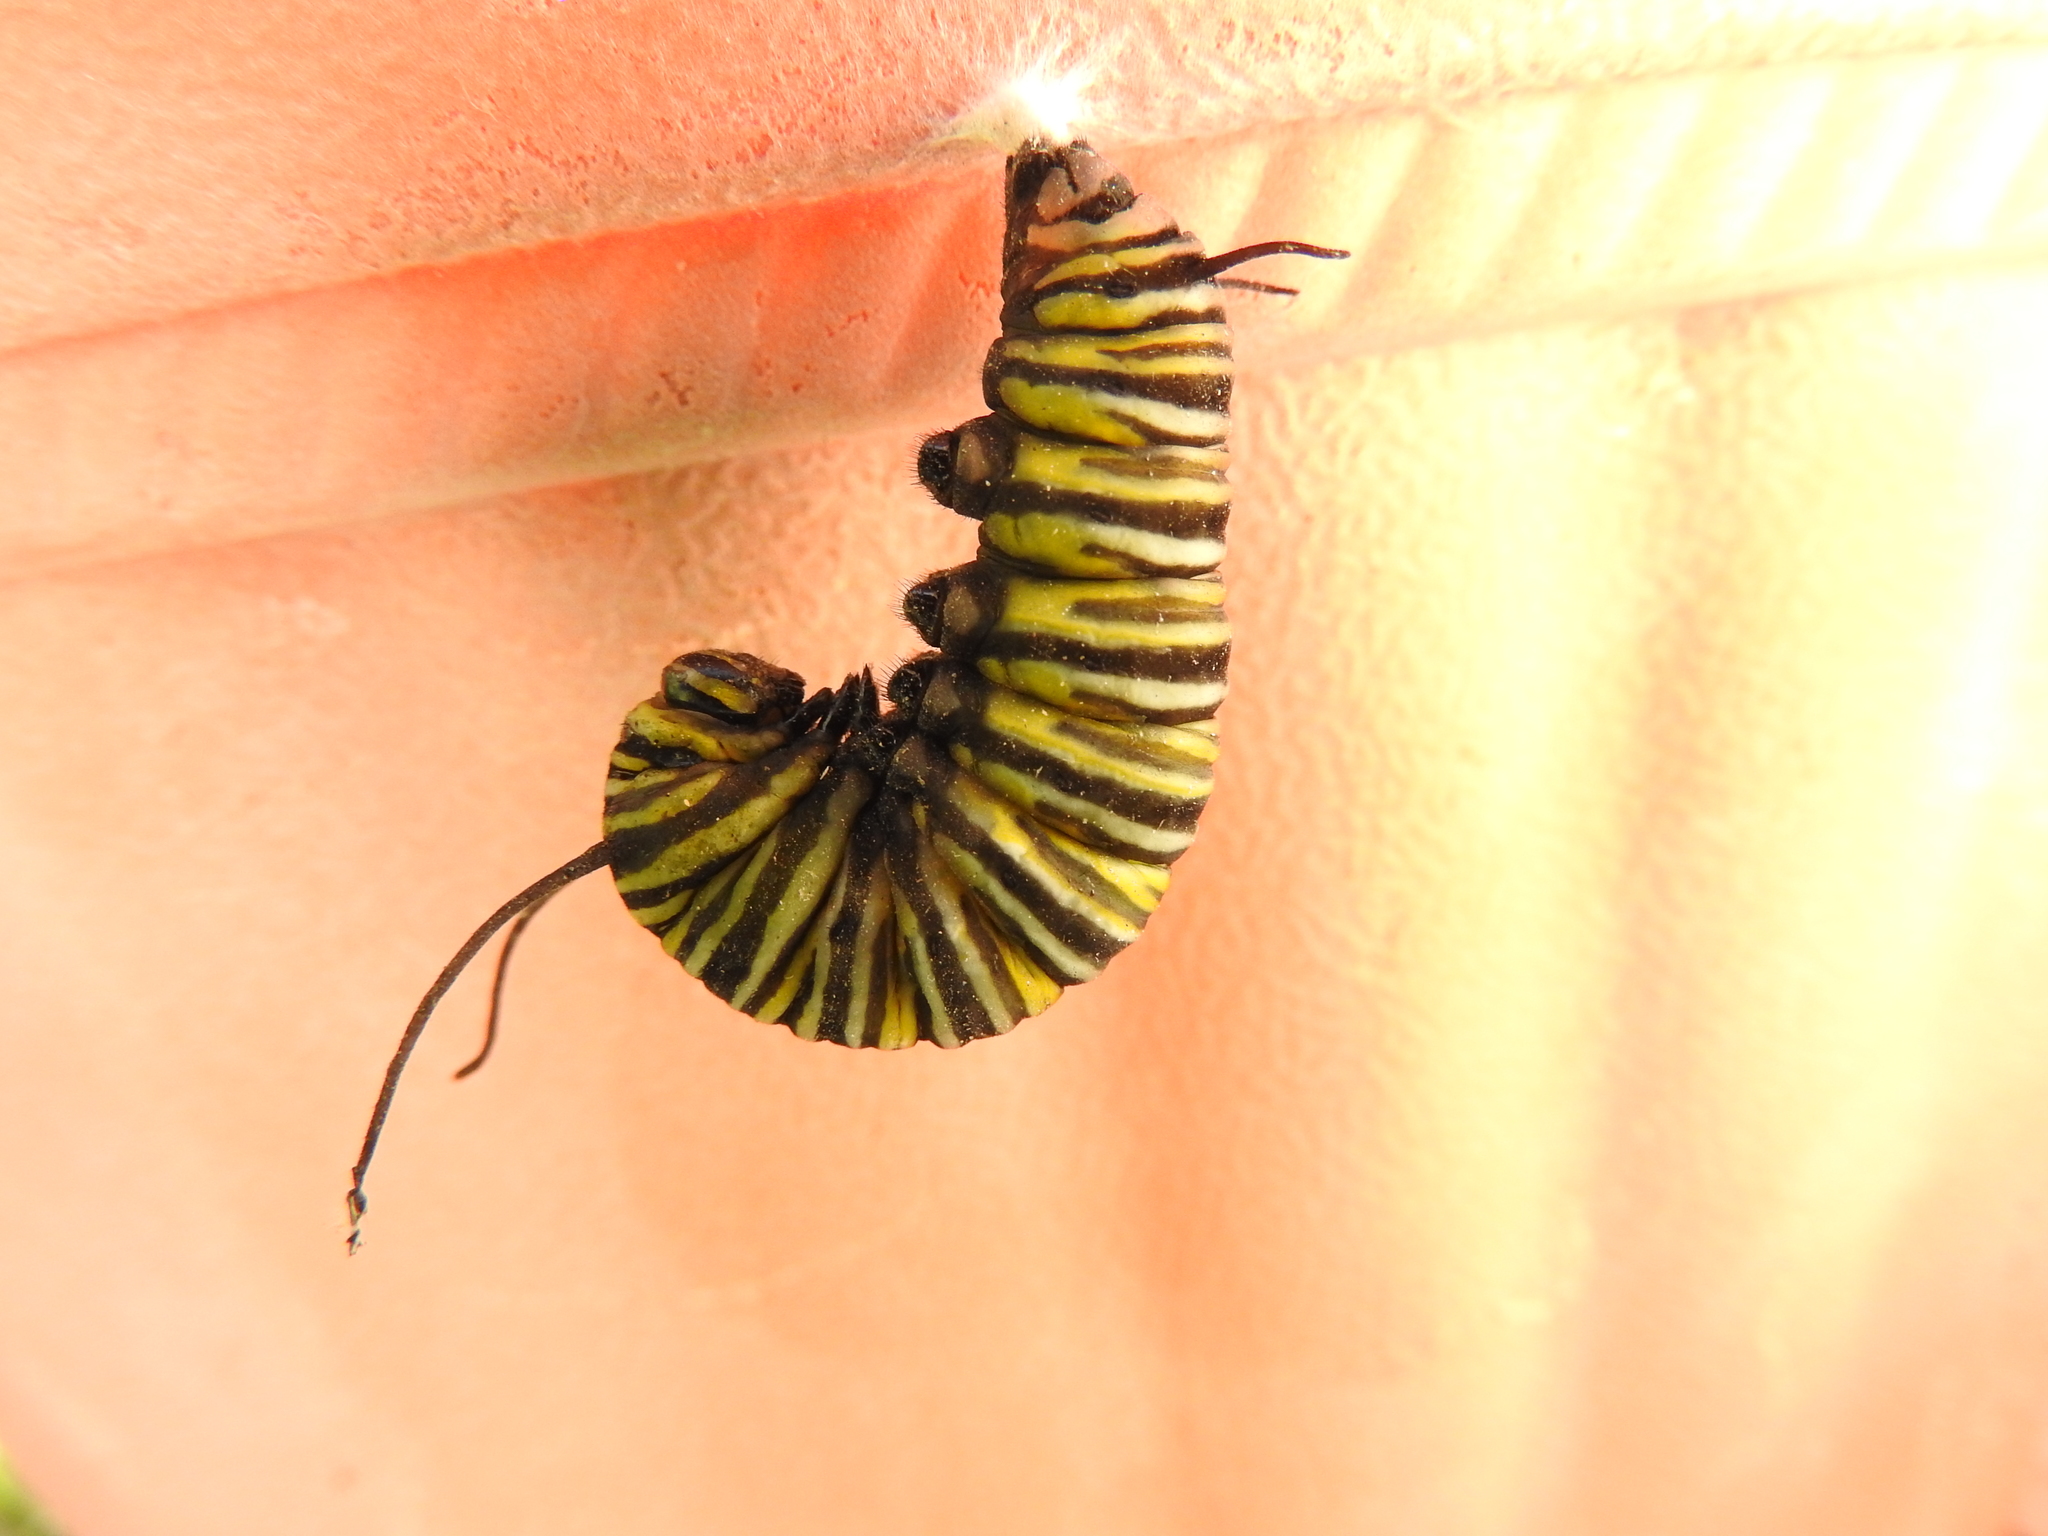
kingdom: Animalia
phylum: Arthropoda
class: Insecta
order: Lepidoptera
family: Nymphalidae
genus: Danaus
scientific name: Danaus plexippus
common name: Monarch
